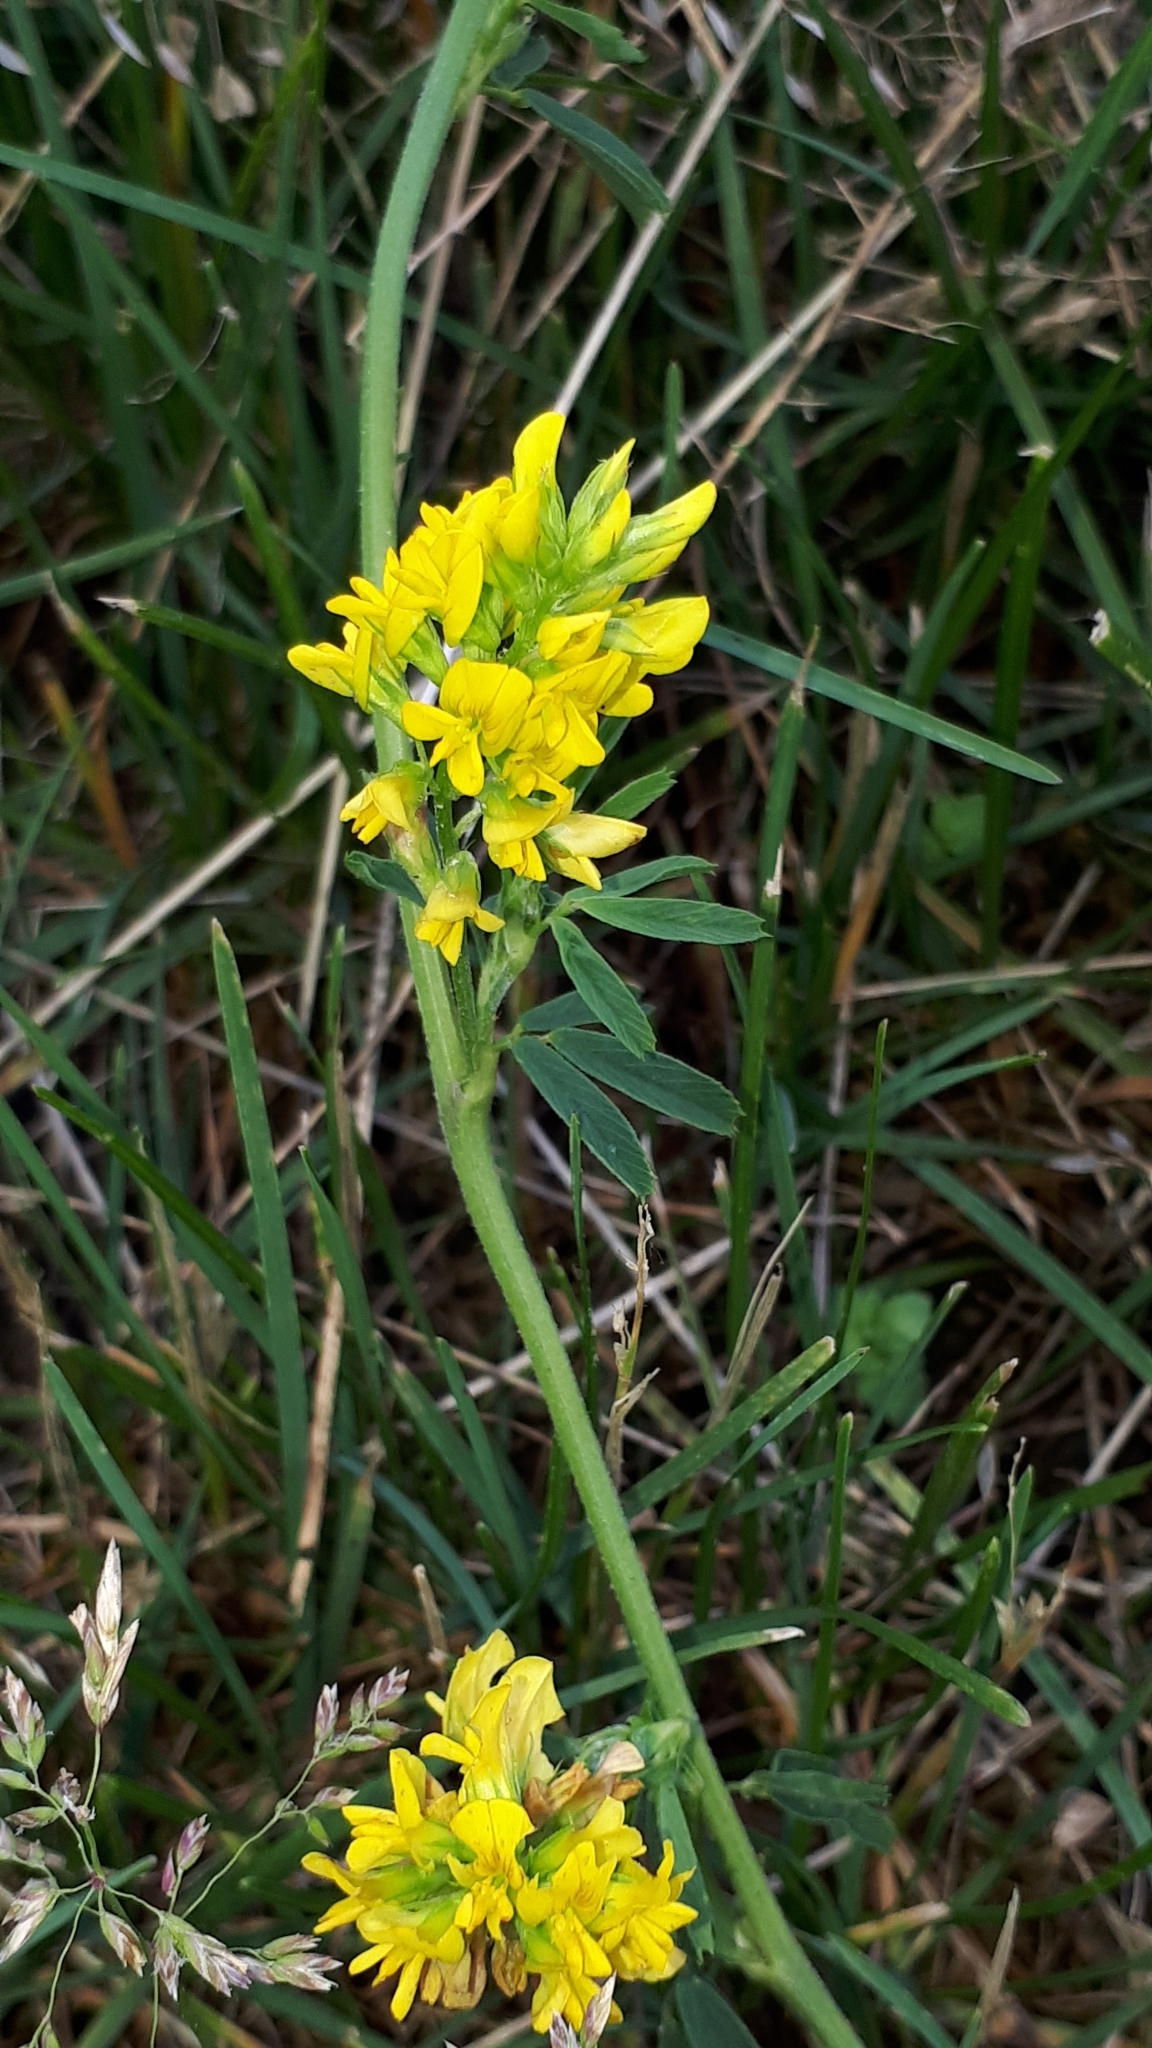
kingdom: Plantae
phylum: Tracheophyta
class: Magnoliopsida
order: Fabales
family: Fabaceae
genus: Medicago
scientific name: Medicago falcata
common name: Sickle medick
